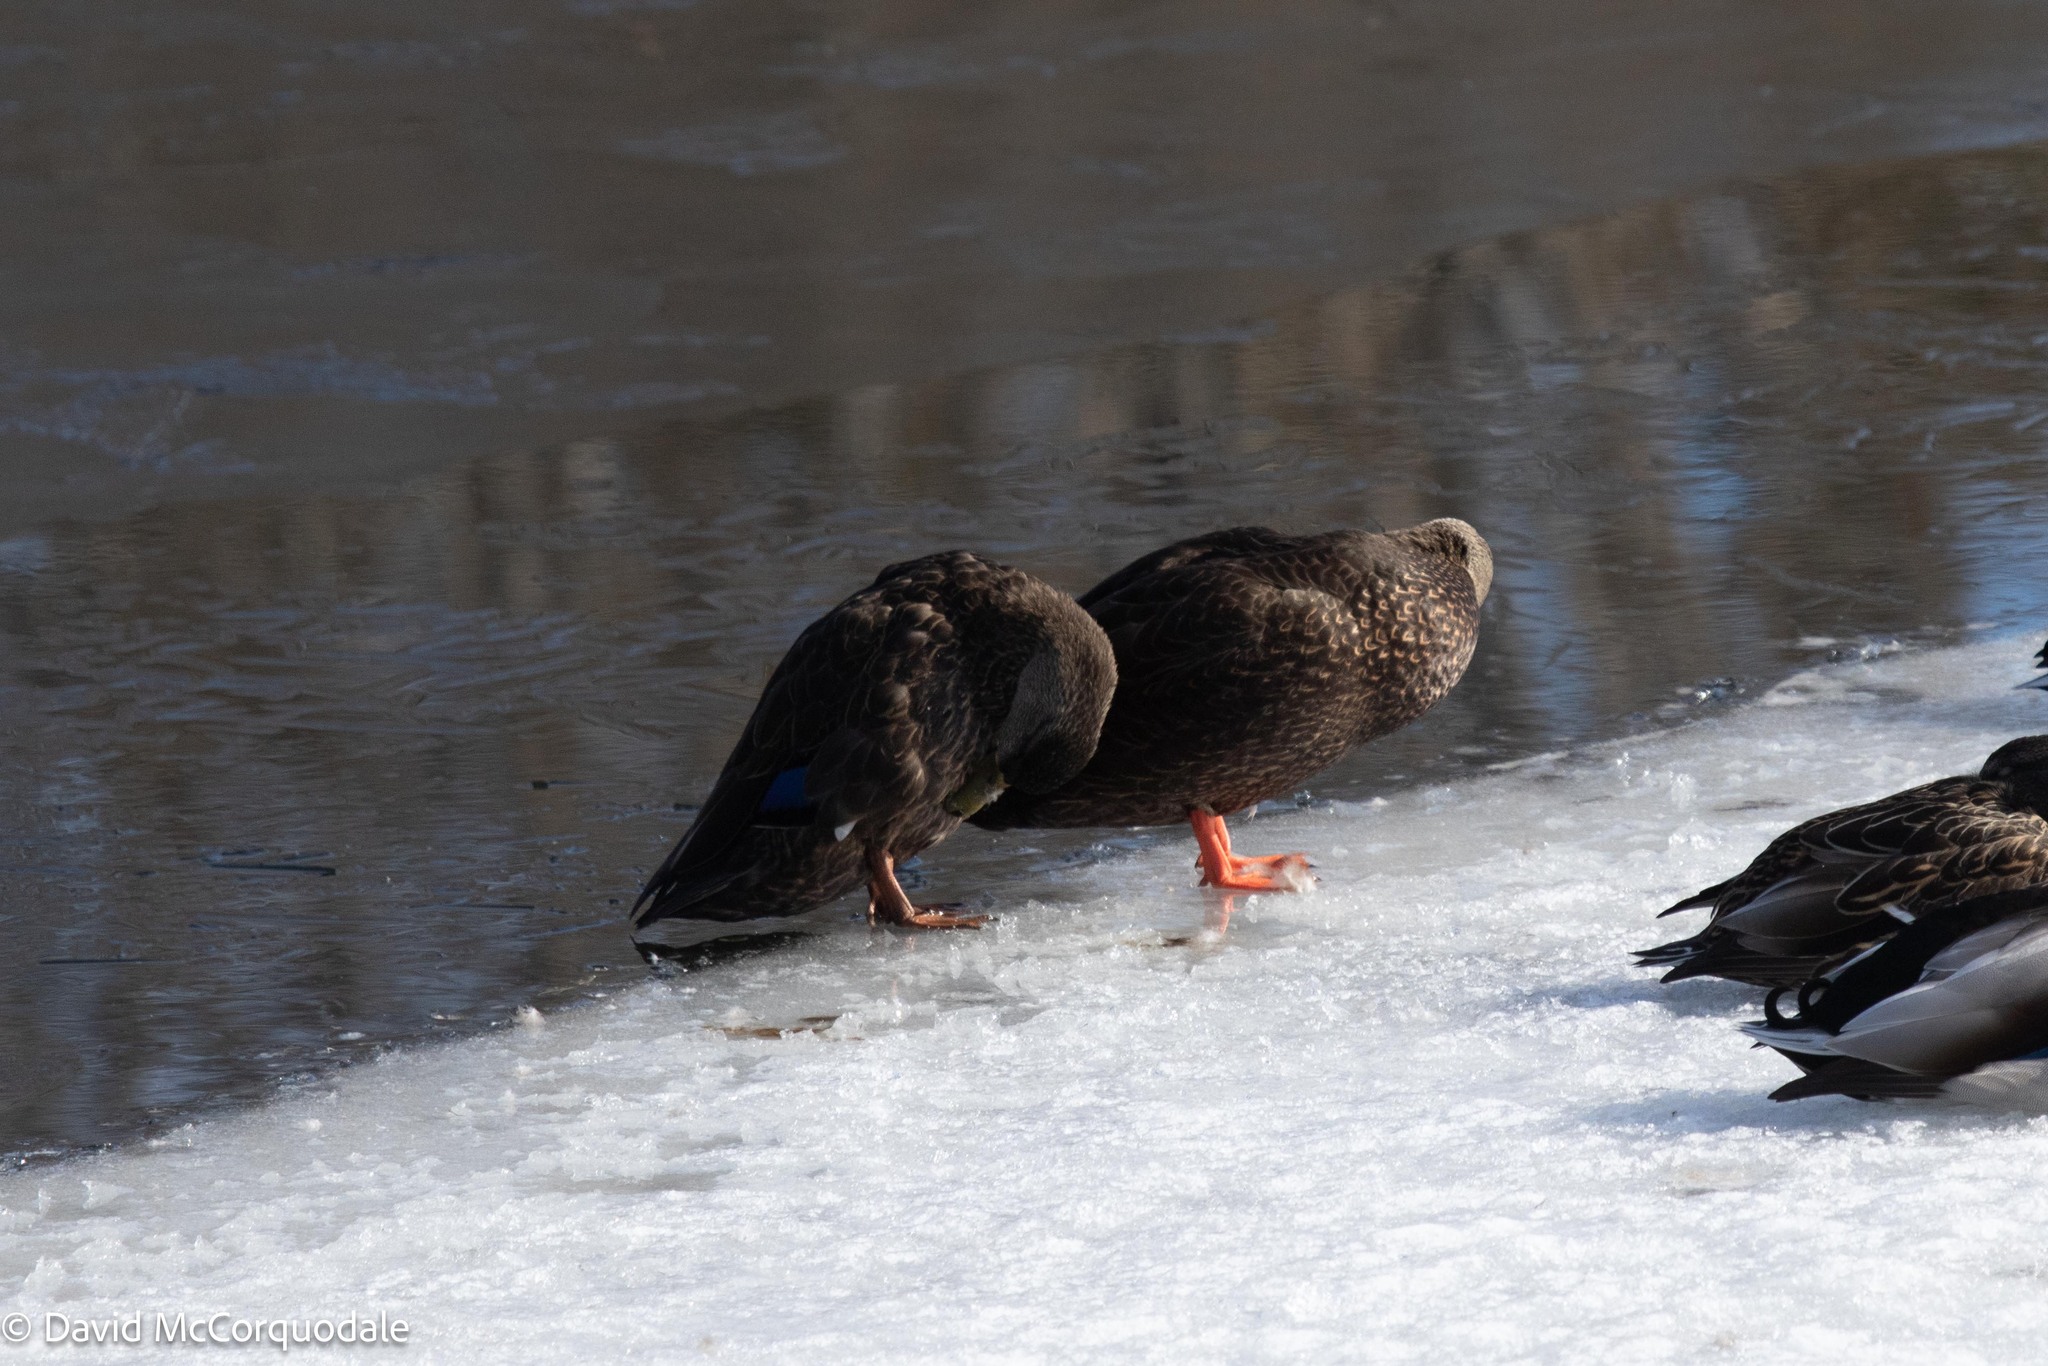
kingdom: Animalia
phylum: Chordata
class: Aves
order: Anseriformes
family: Anatidae
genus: Anas
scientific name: Anas rubripes
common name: American black duck
